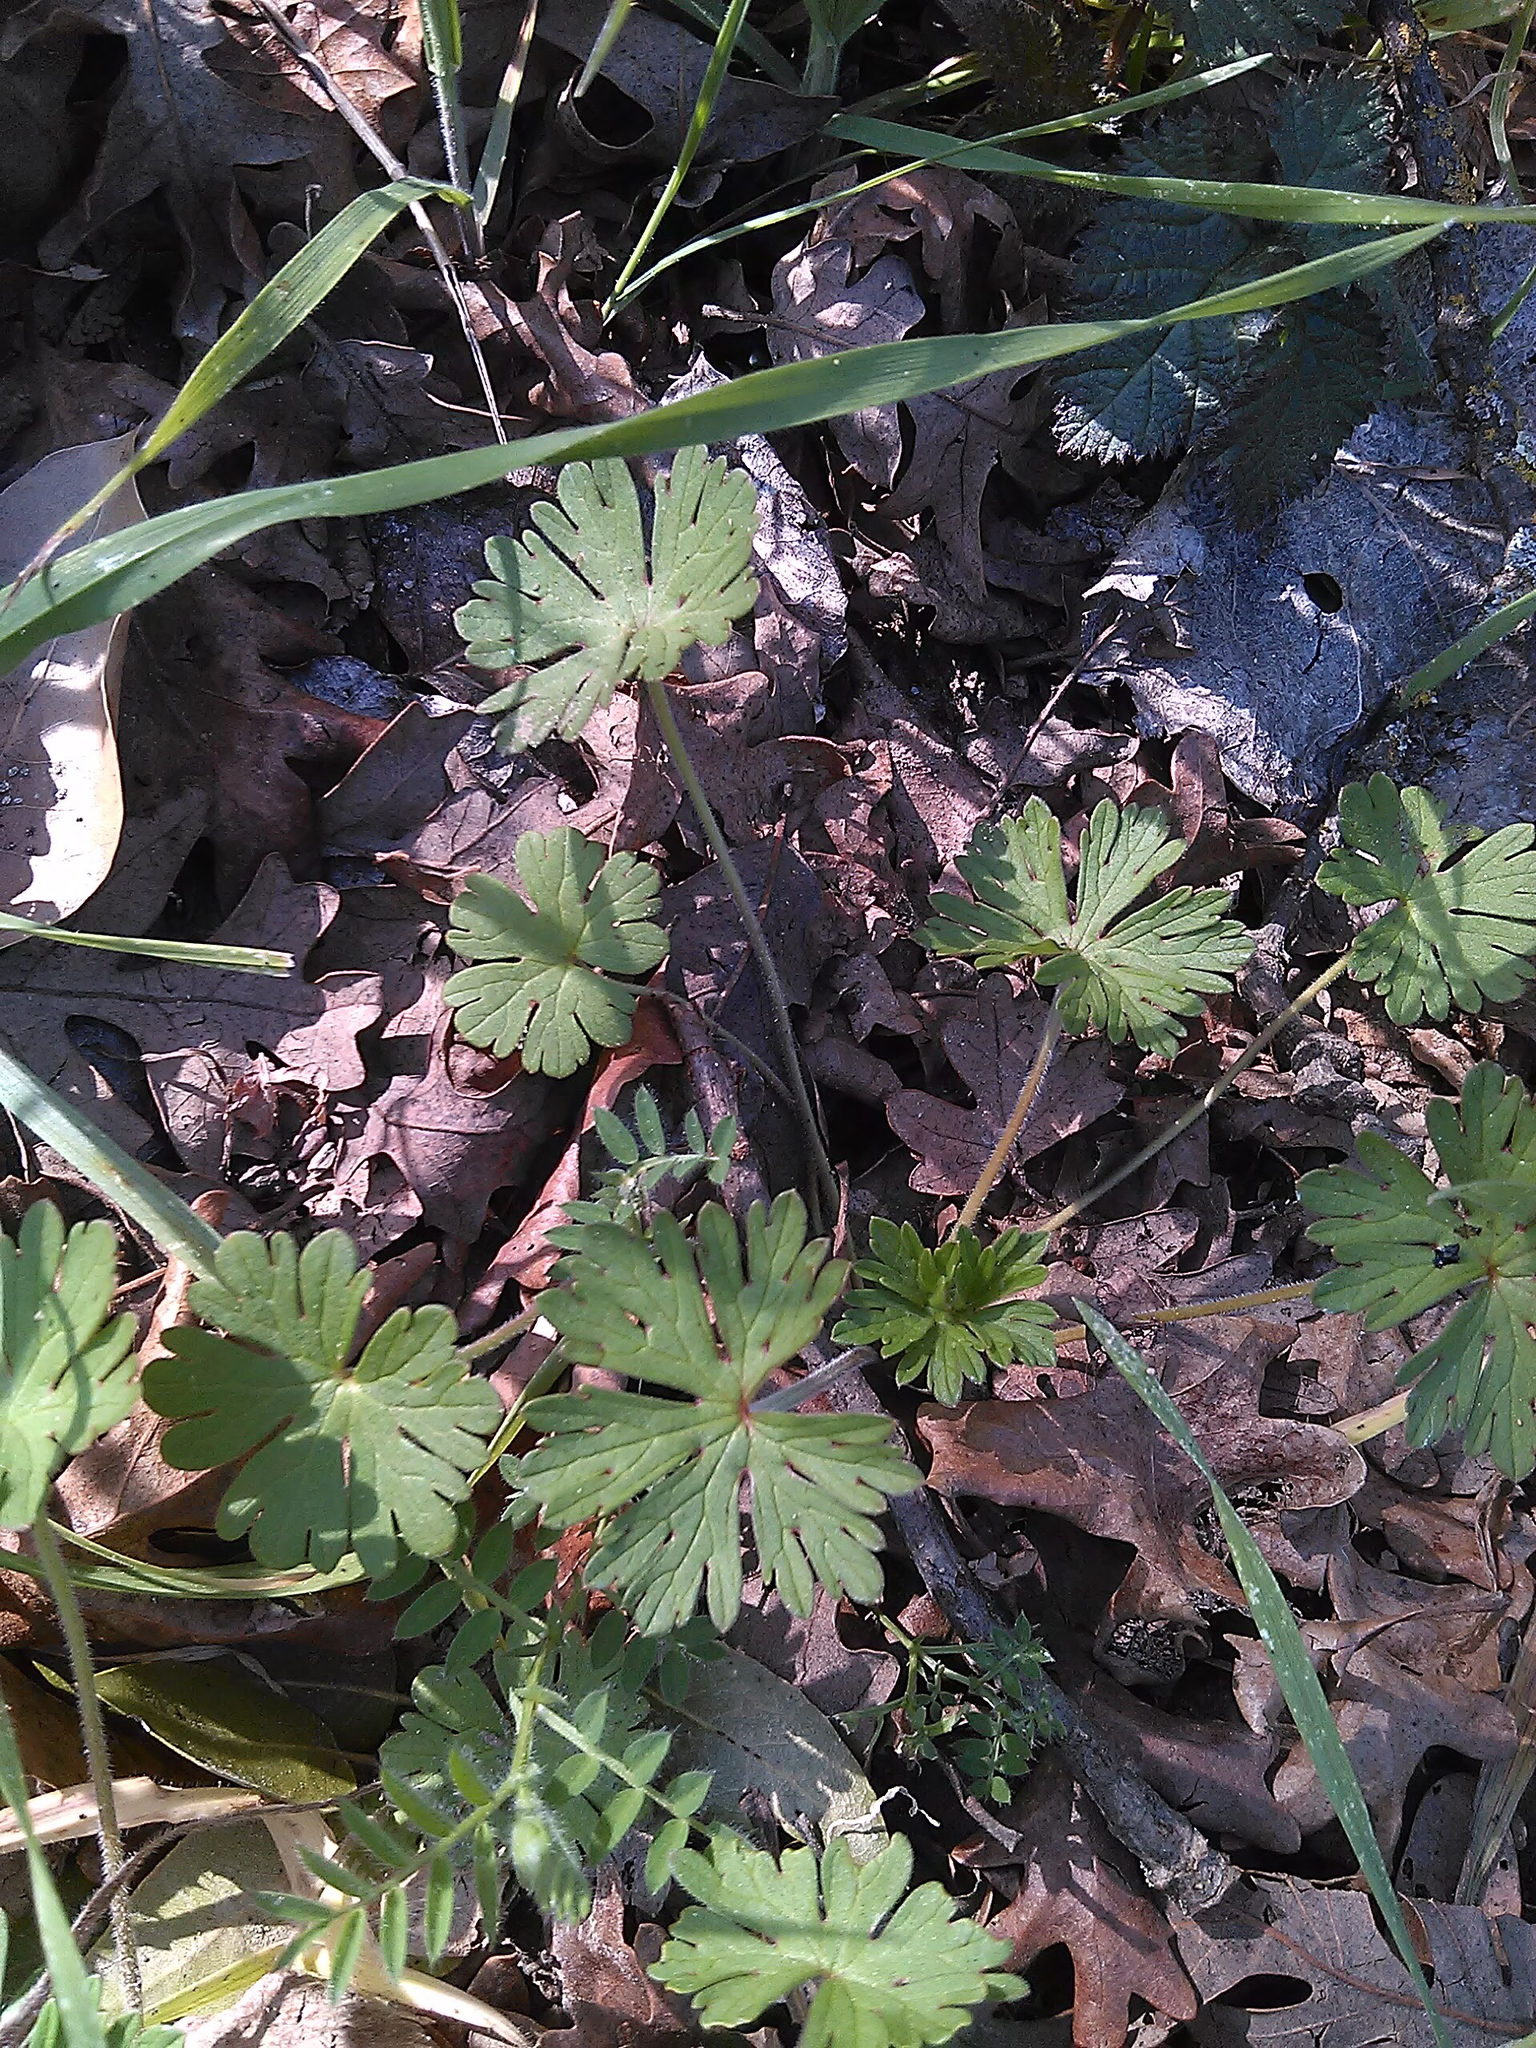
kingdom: Plantae
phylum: Tracheophyta
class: Magnoliopsida
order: Geraniales
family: Geraniaceae
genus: Geranium
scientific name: Geranium
